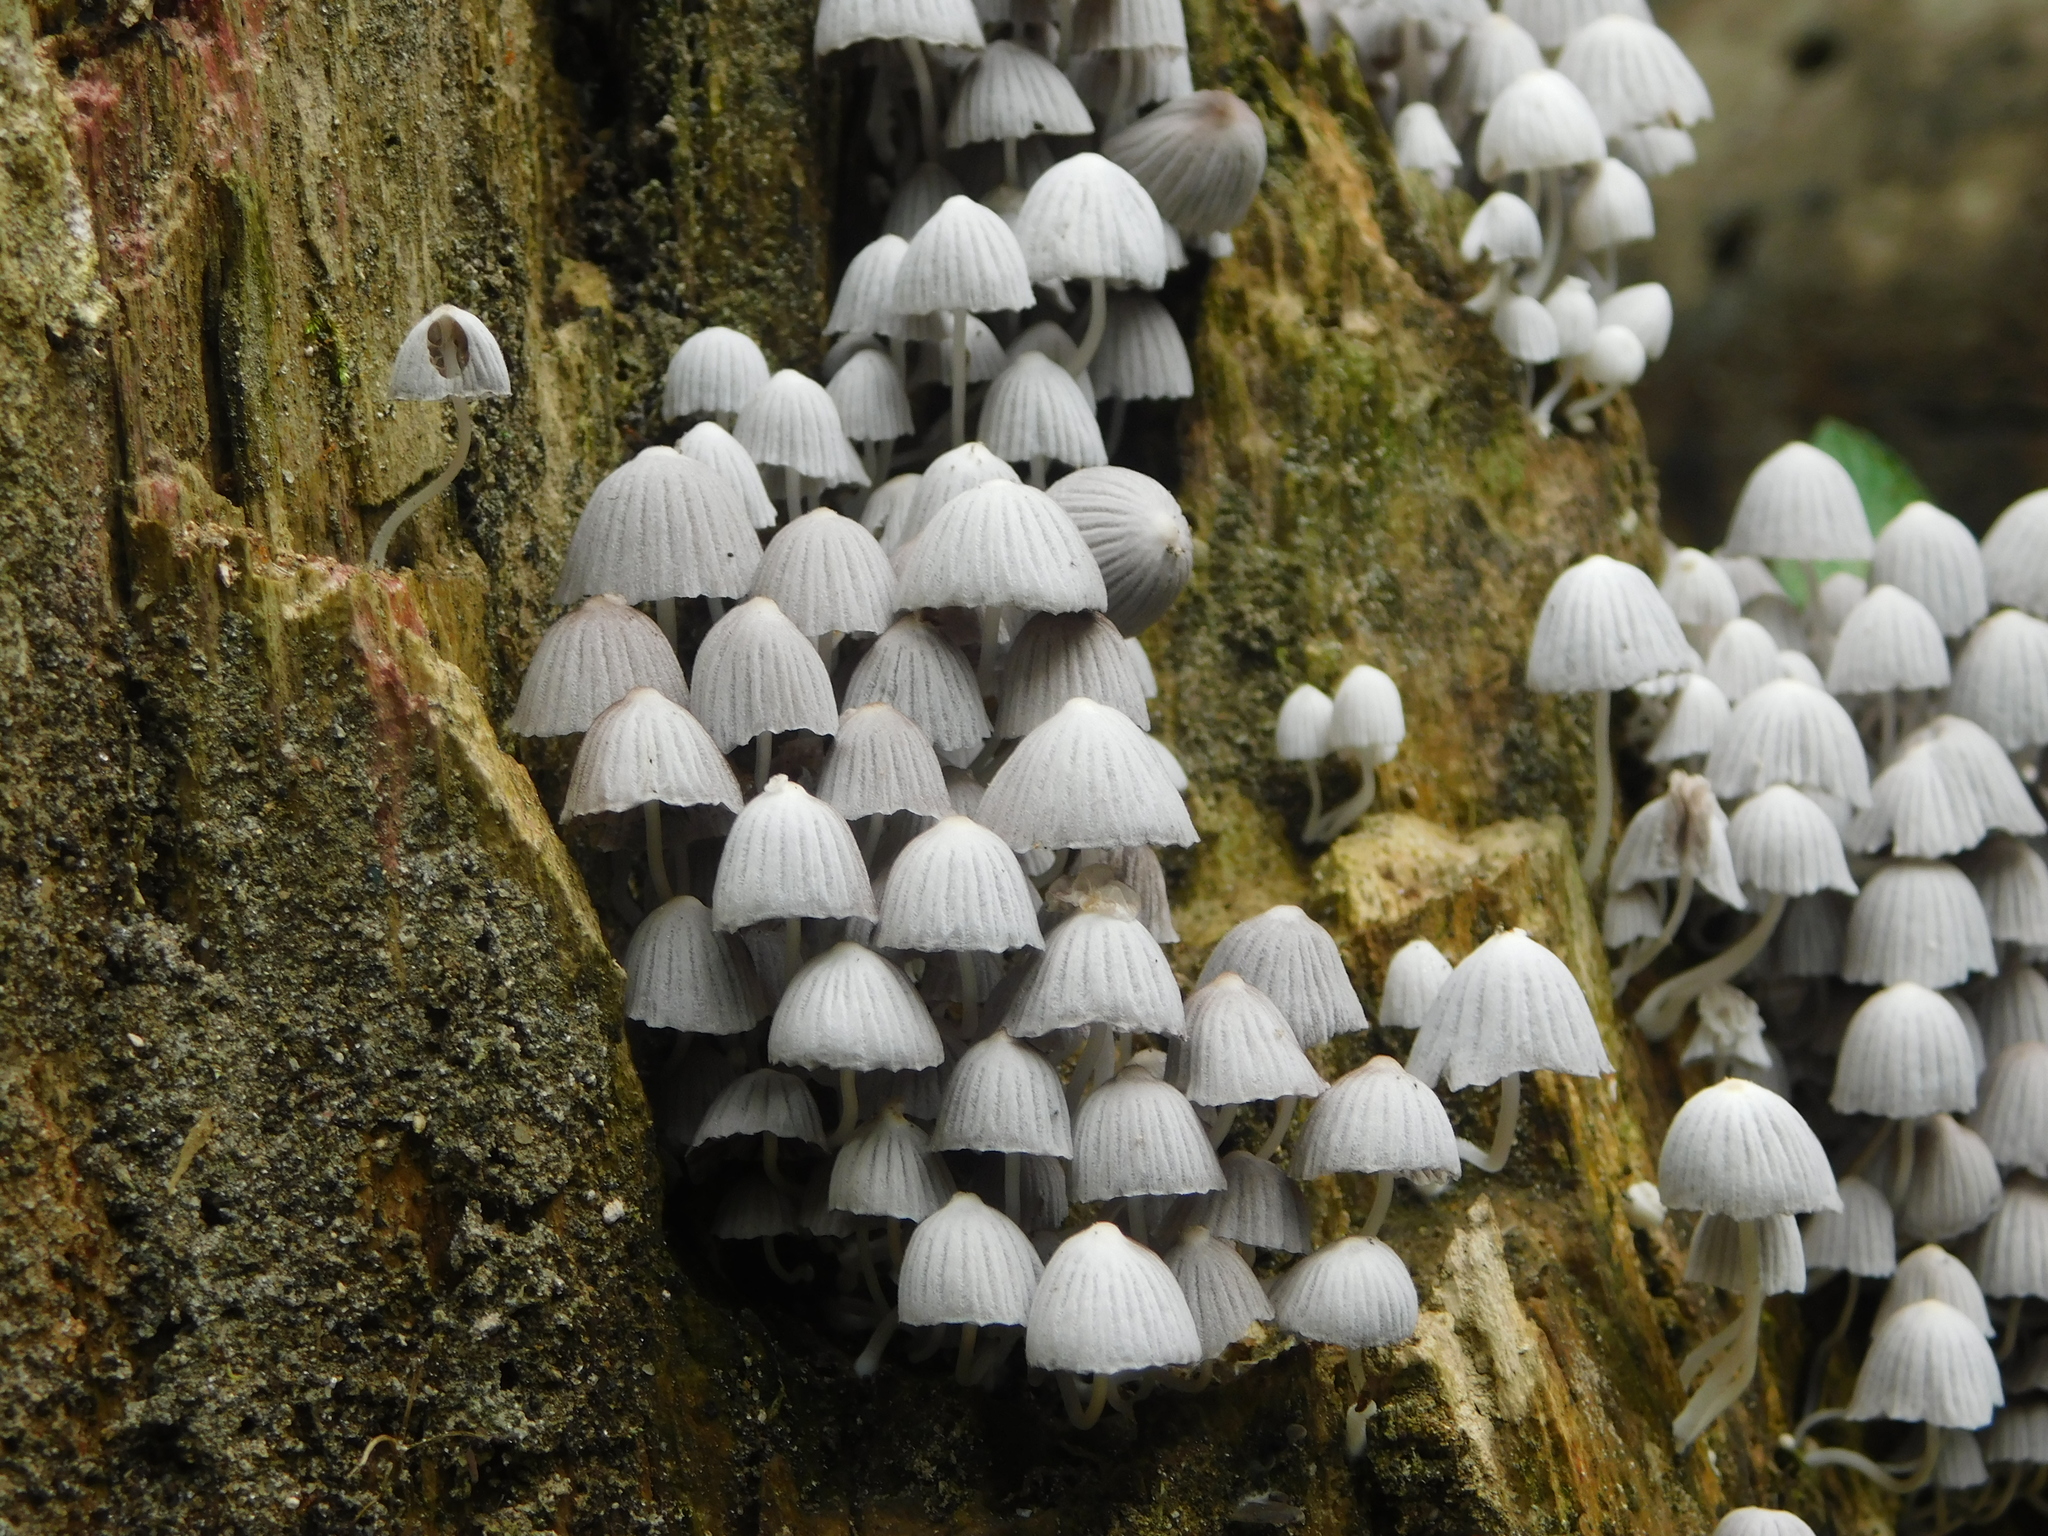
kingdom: Fungi
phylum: Basidiomycota
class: Agaricomycetes
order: Agaricales
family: Psathyrellaceae
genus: Coprinellus
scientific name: Coprinellus disseminatus
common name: Fairies' bonnets
